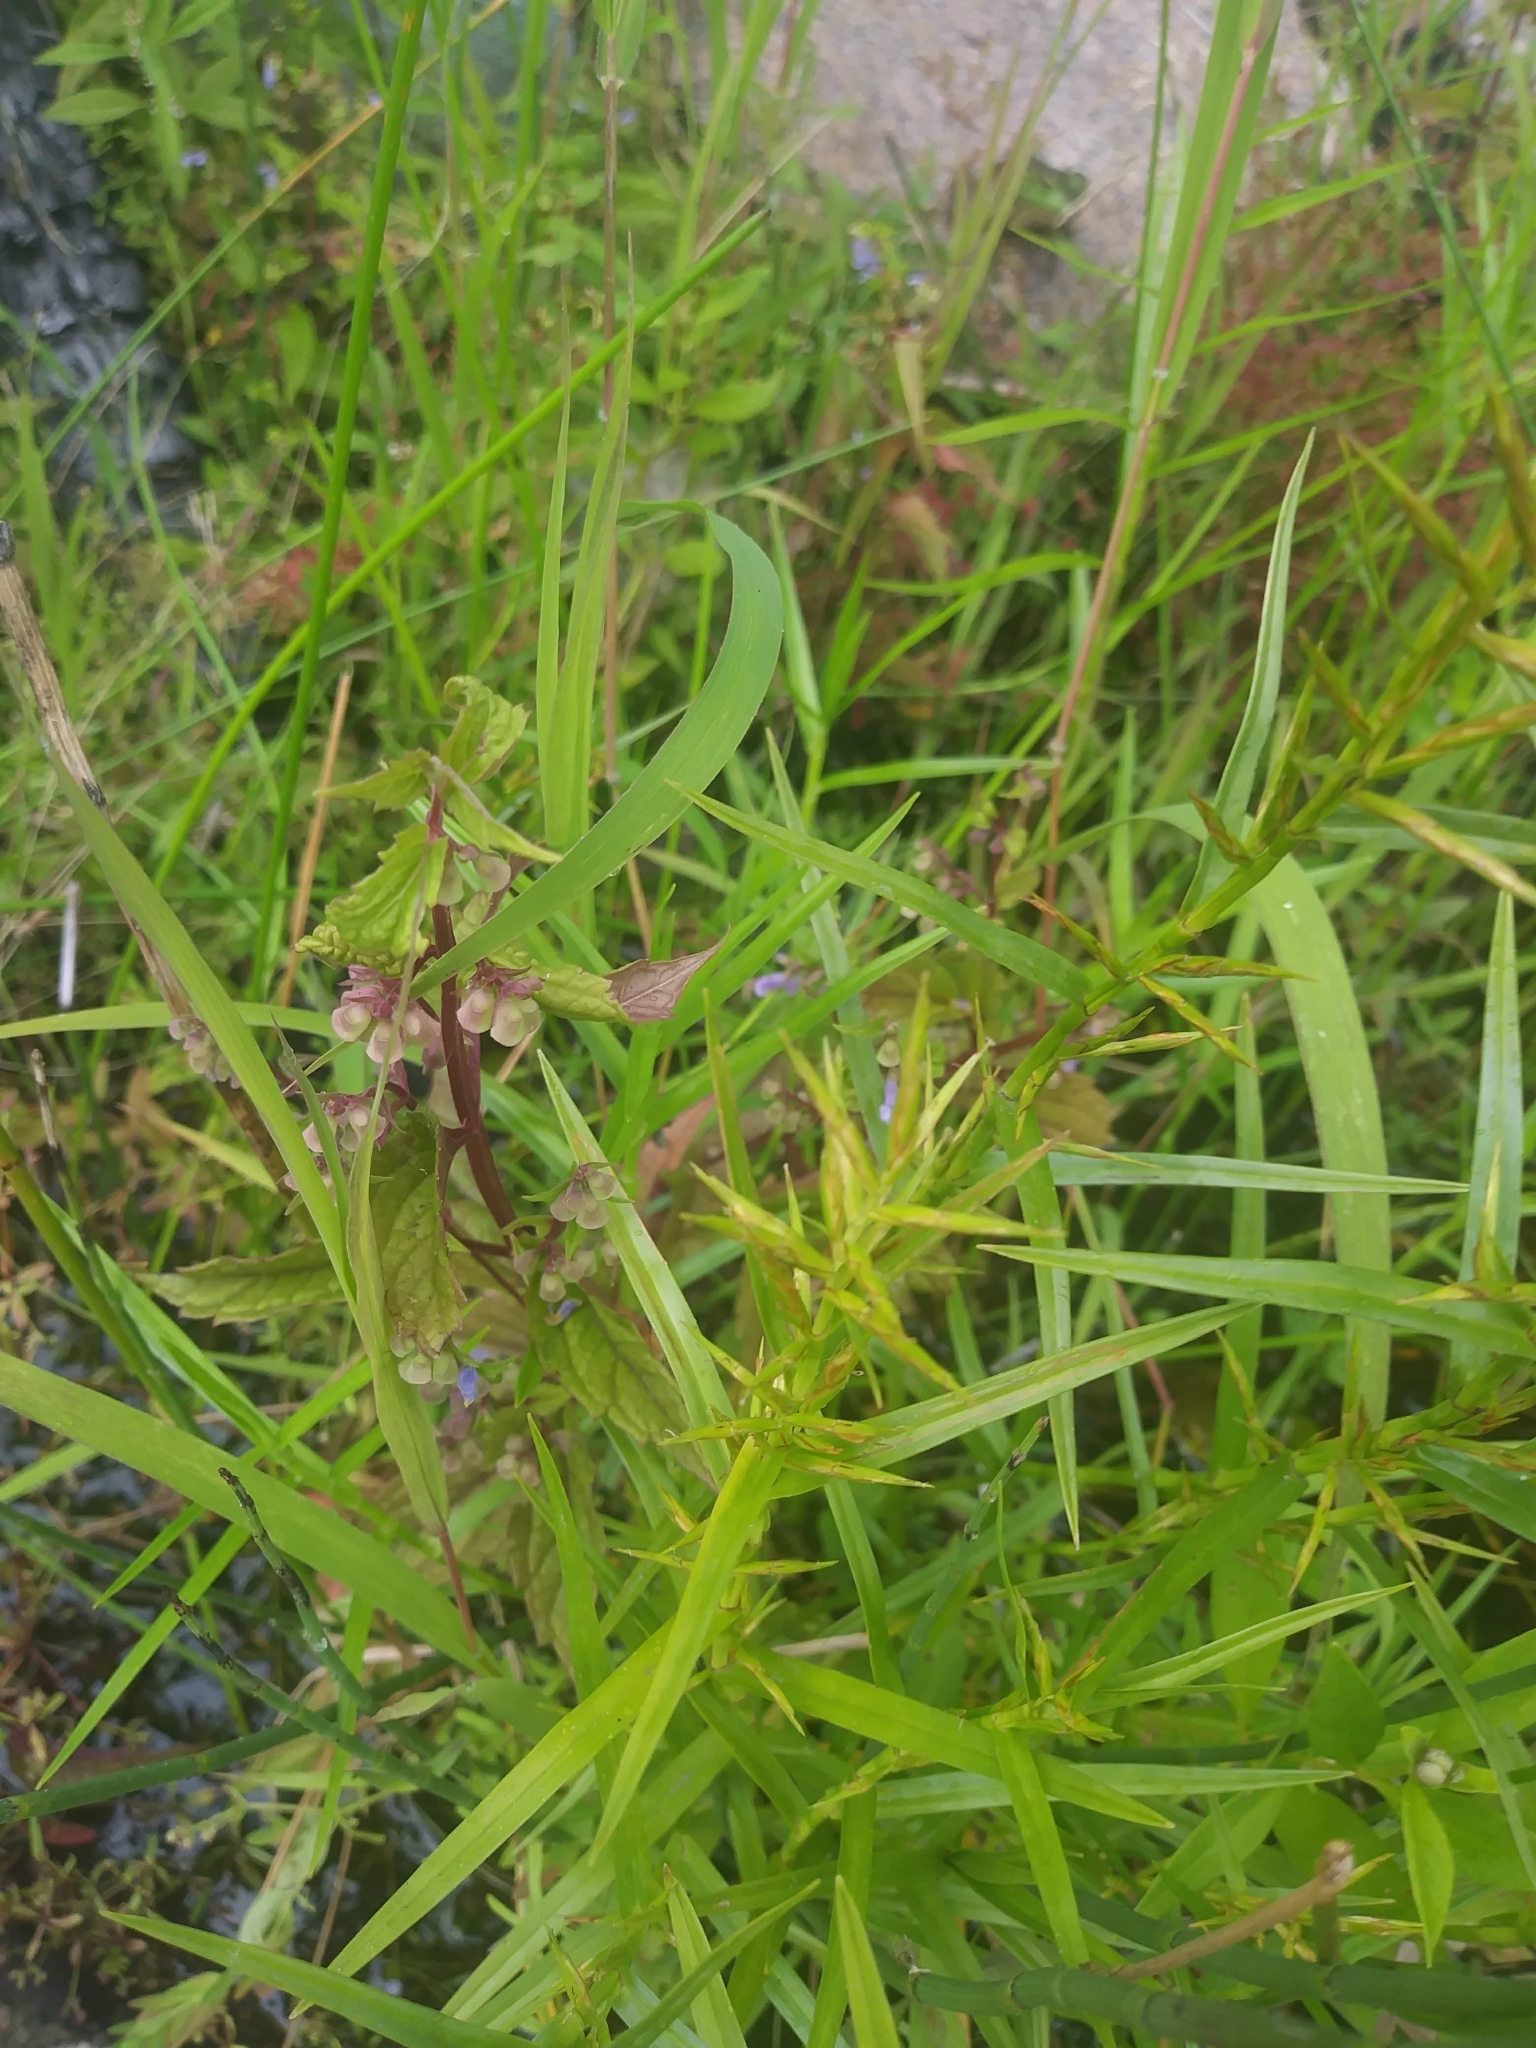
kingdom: Plantae
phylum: Tracheophyta
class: Liliopsida
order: Poales
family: Cyperaceae
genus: Dulichium
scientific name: Dulichium arundinaceum
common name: Three-way sedge
